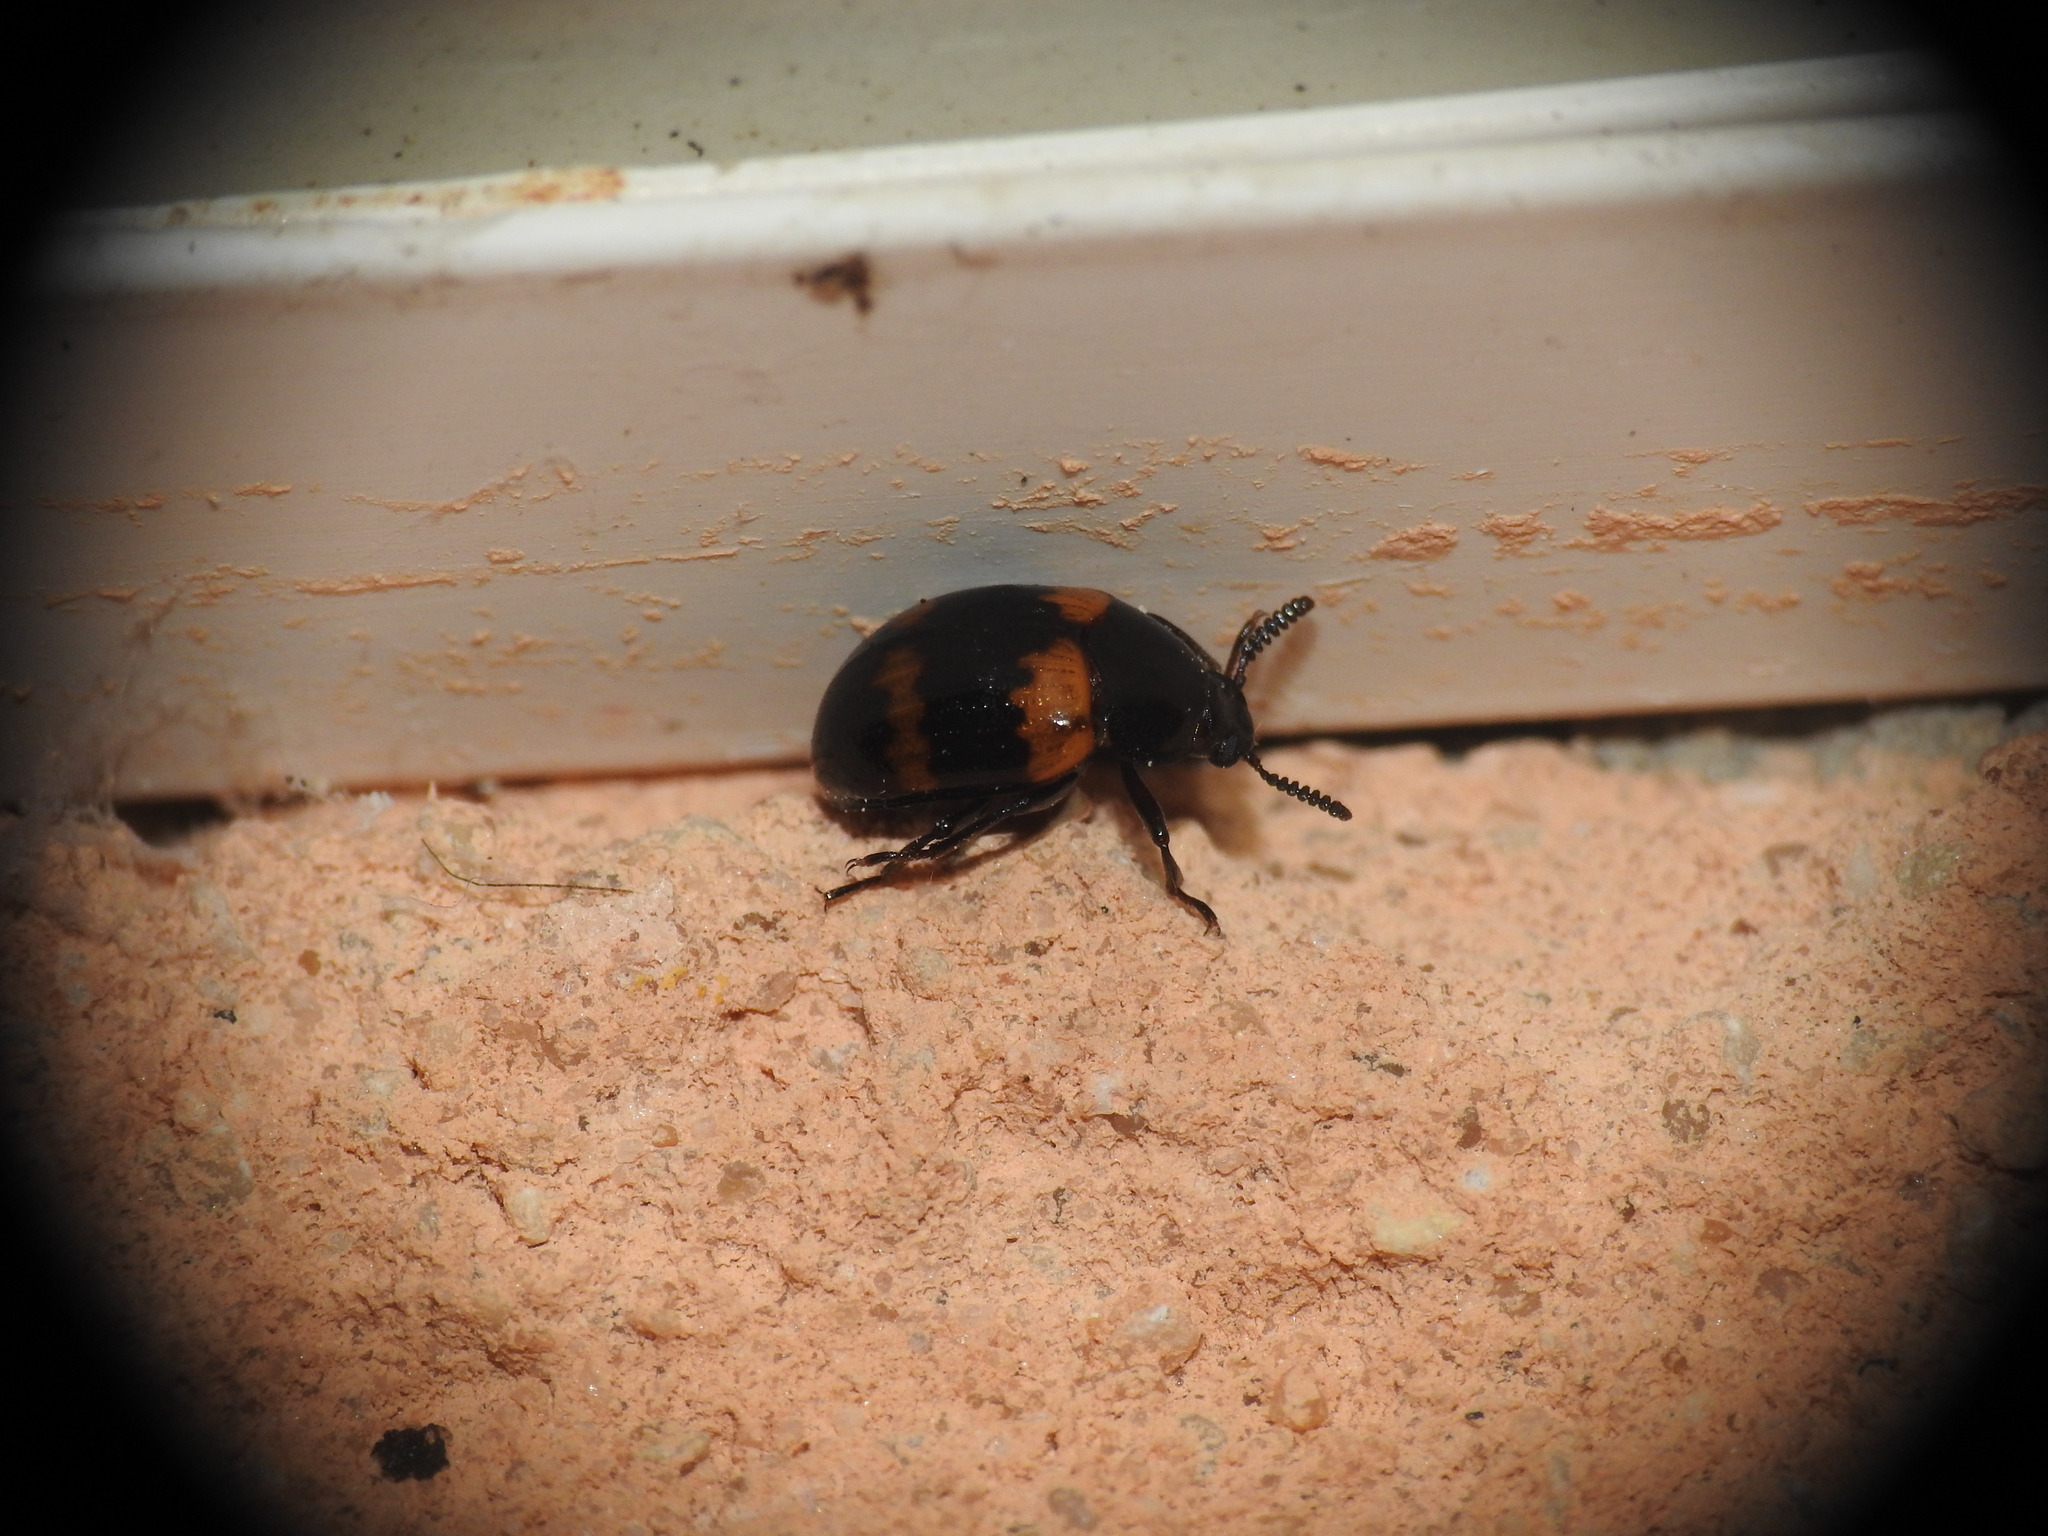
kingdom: Animalia
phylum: Arthropoda
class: Insecta
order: Coleoptera
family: Tenebrionidae
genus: Diaperis
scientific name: Diaperis boleti
